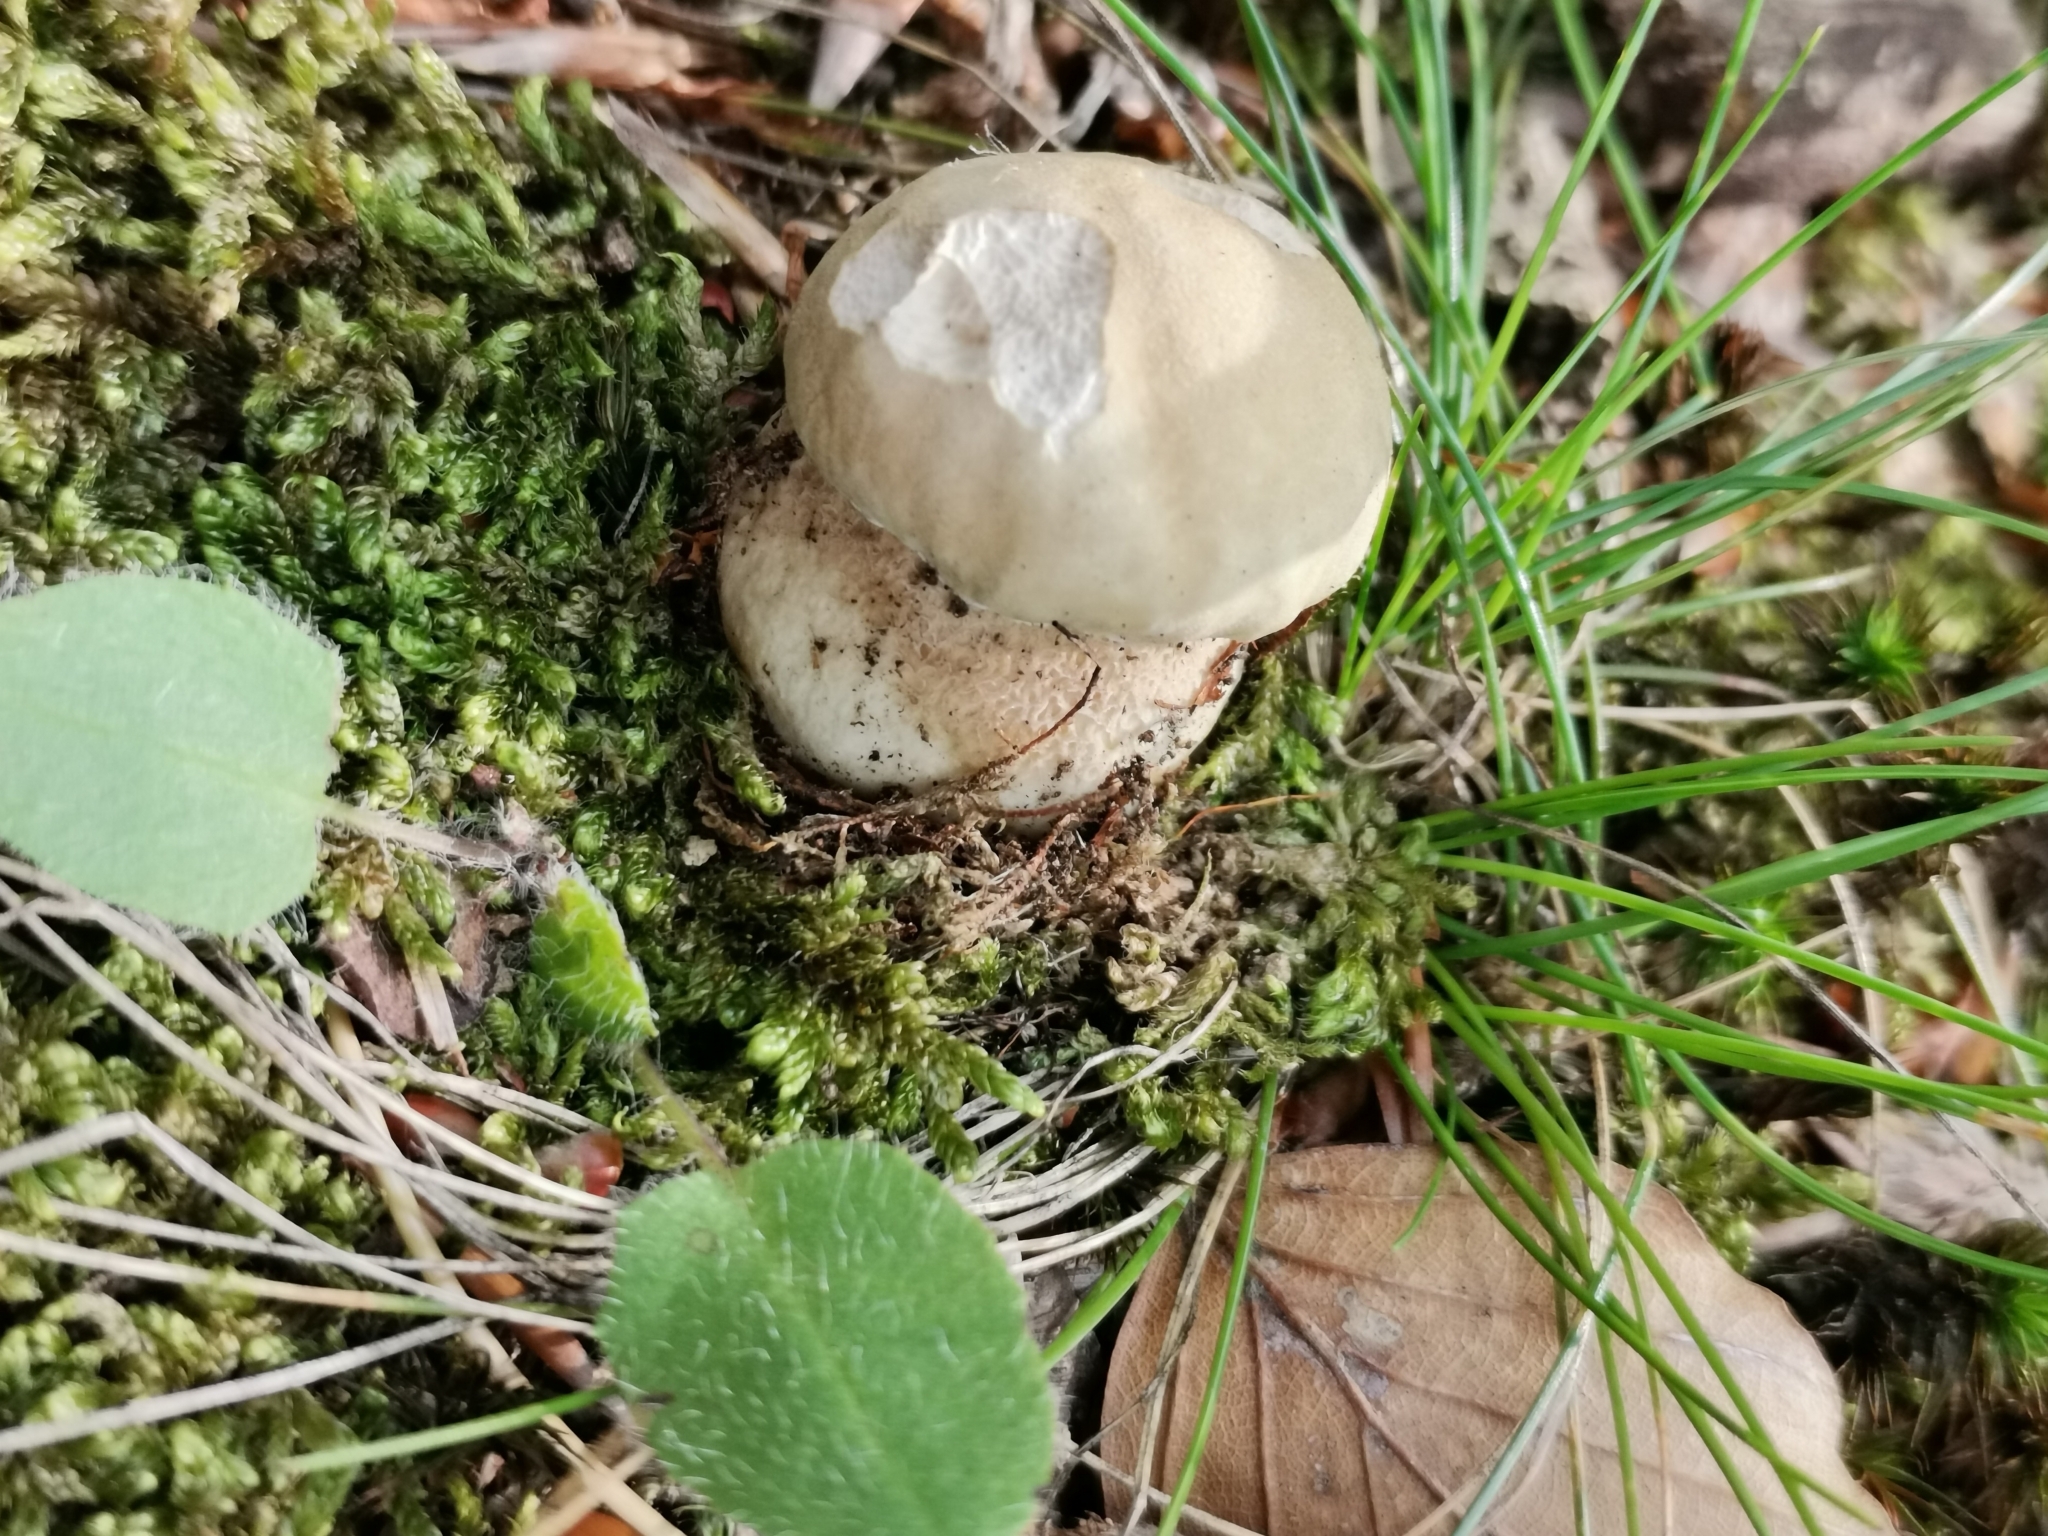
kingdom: Fungi
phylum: Basidiomycota
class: Agaricomycetes
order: Boletales
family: Boletaceae
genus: Boletus
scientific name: Boletus reticulatus
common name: Summer bolete
